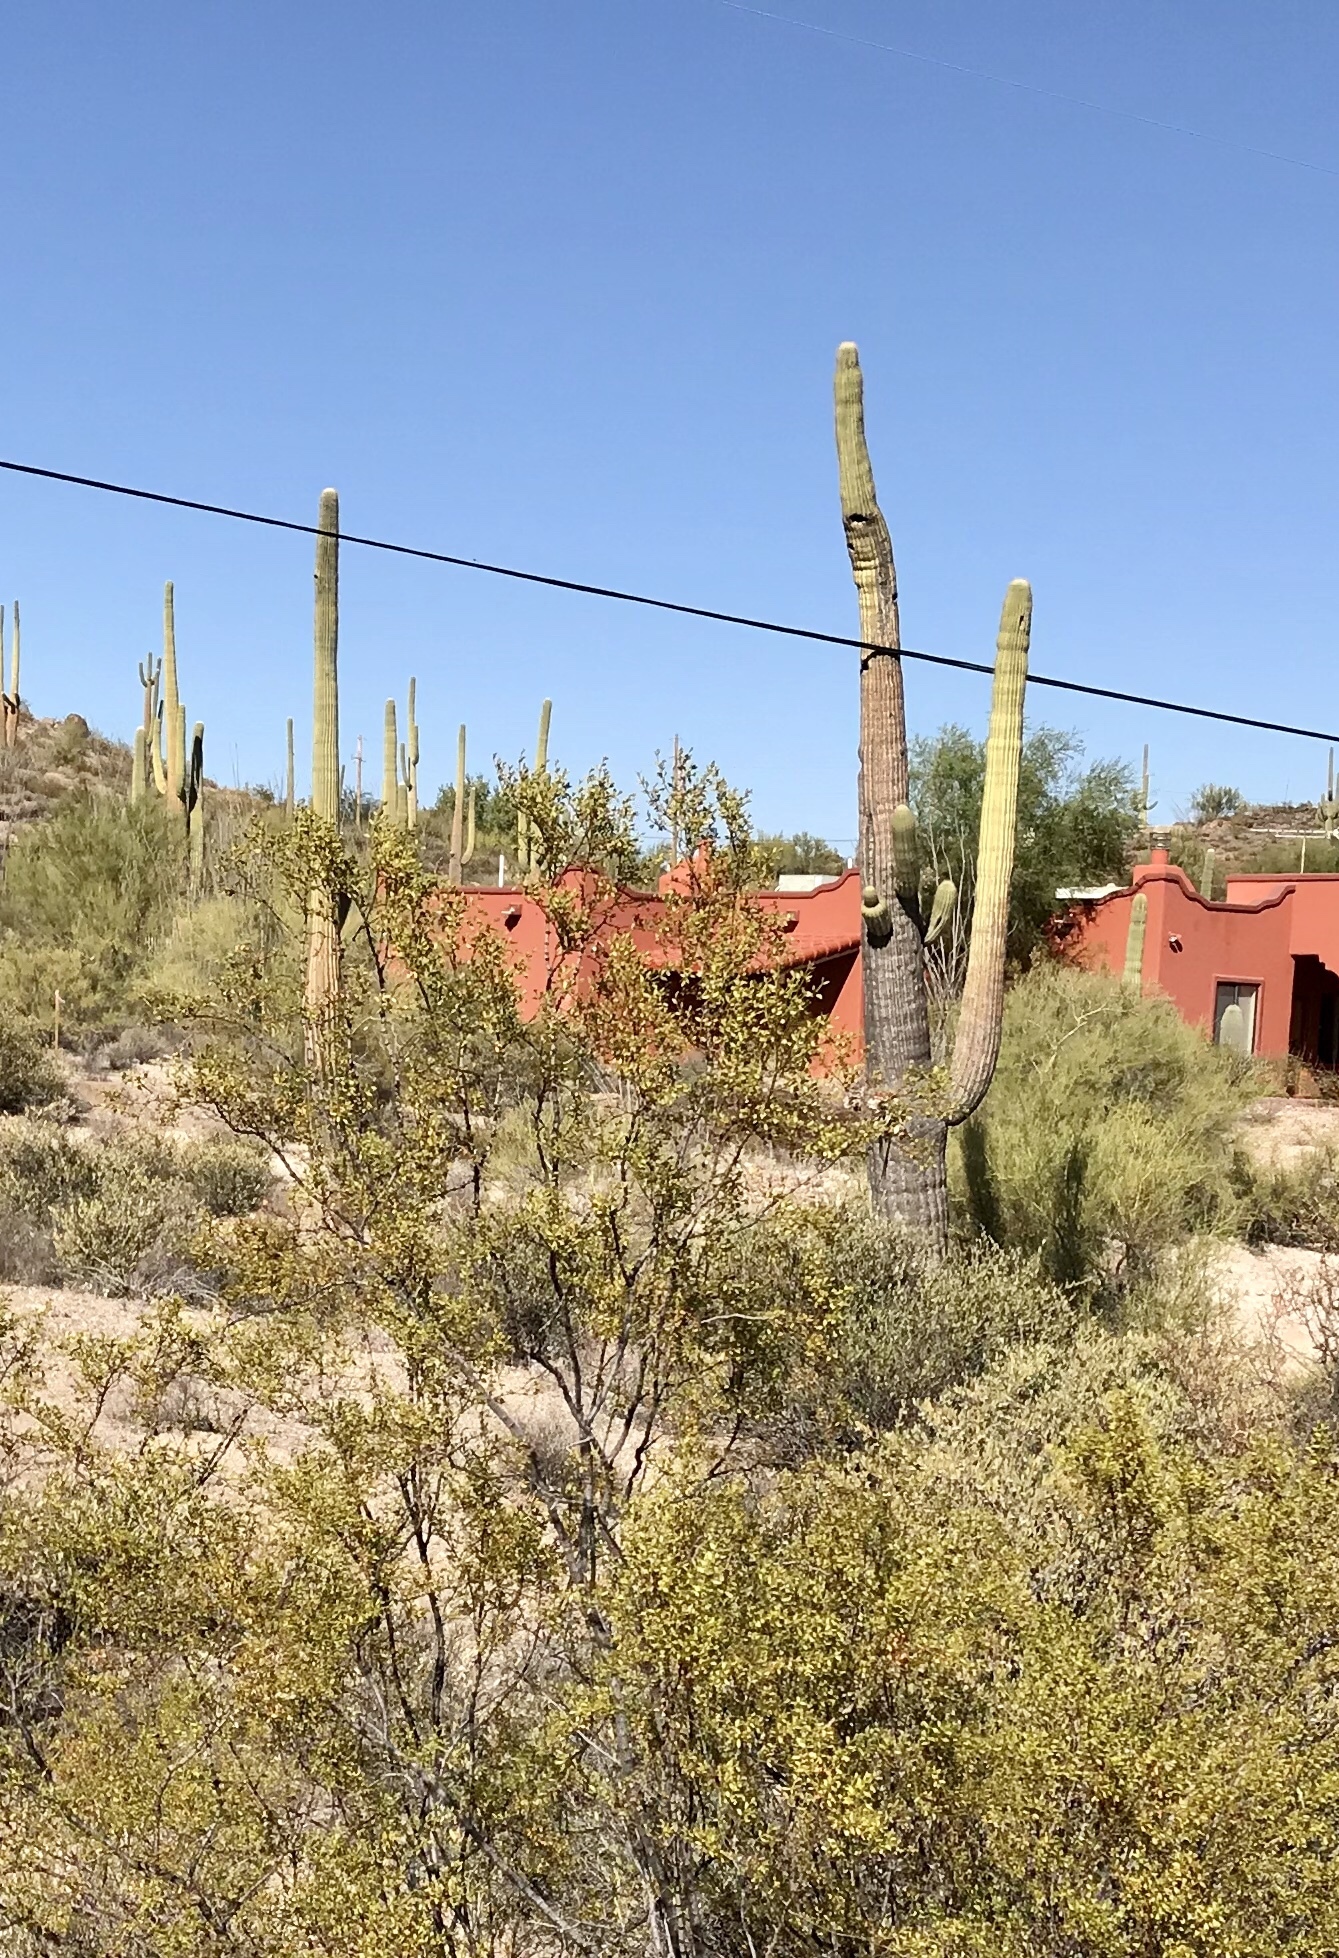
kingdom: Plantae
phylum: Tracheophyta
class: Magnoliopsida
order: Caryophyllales
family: Cactaceae
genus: Carnegiea
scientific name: Carnegiea gigantea
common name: Saguaro
